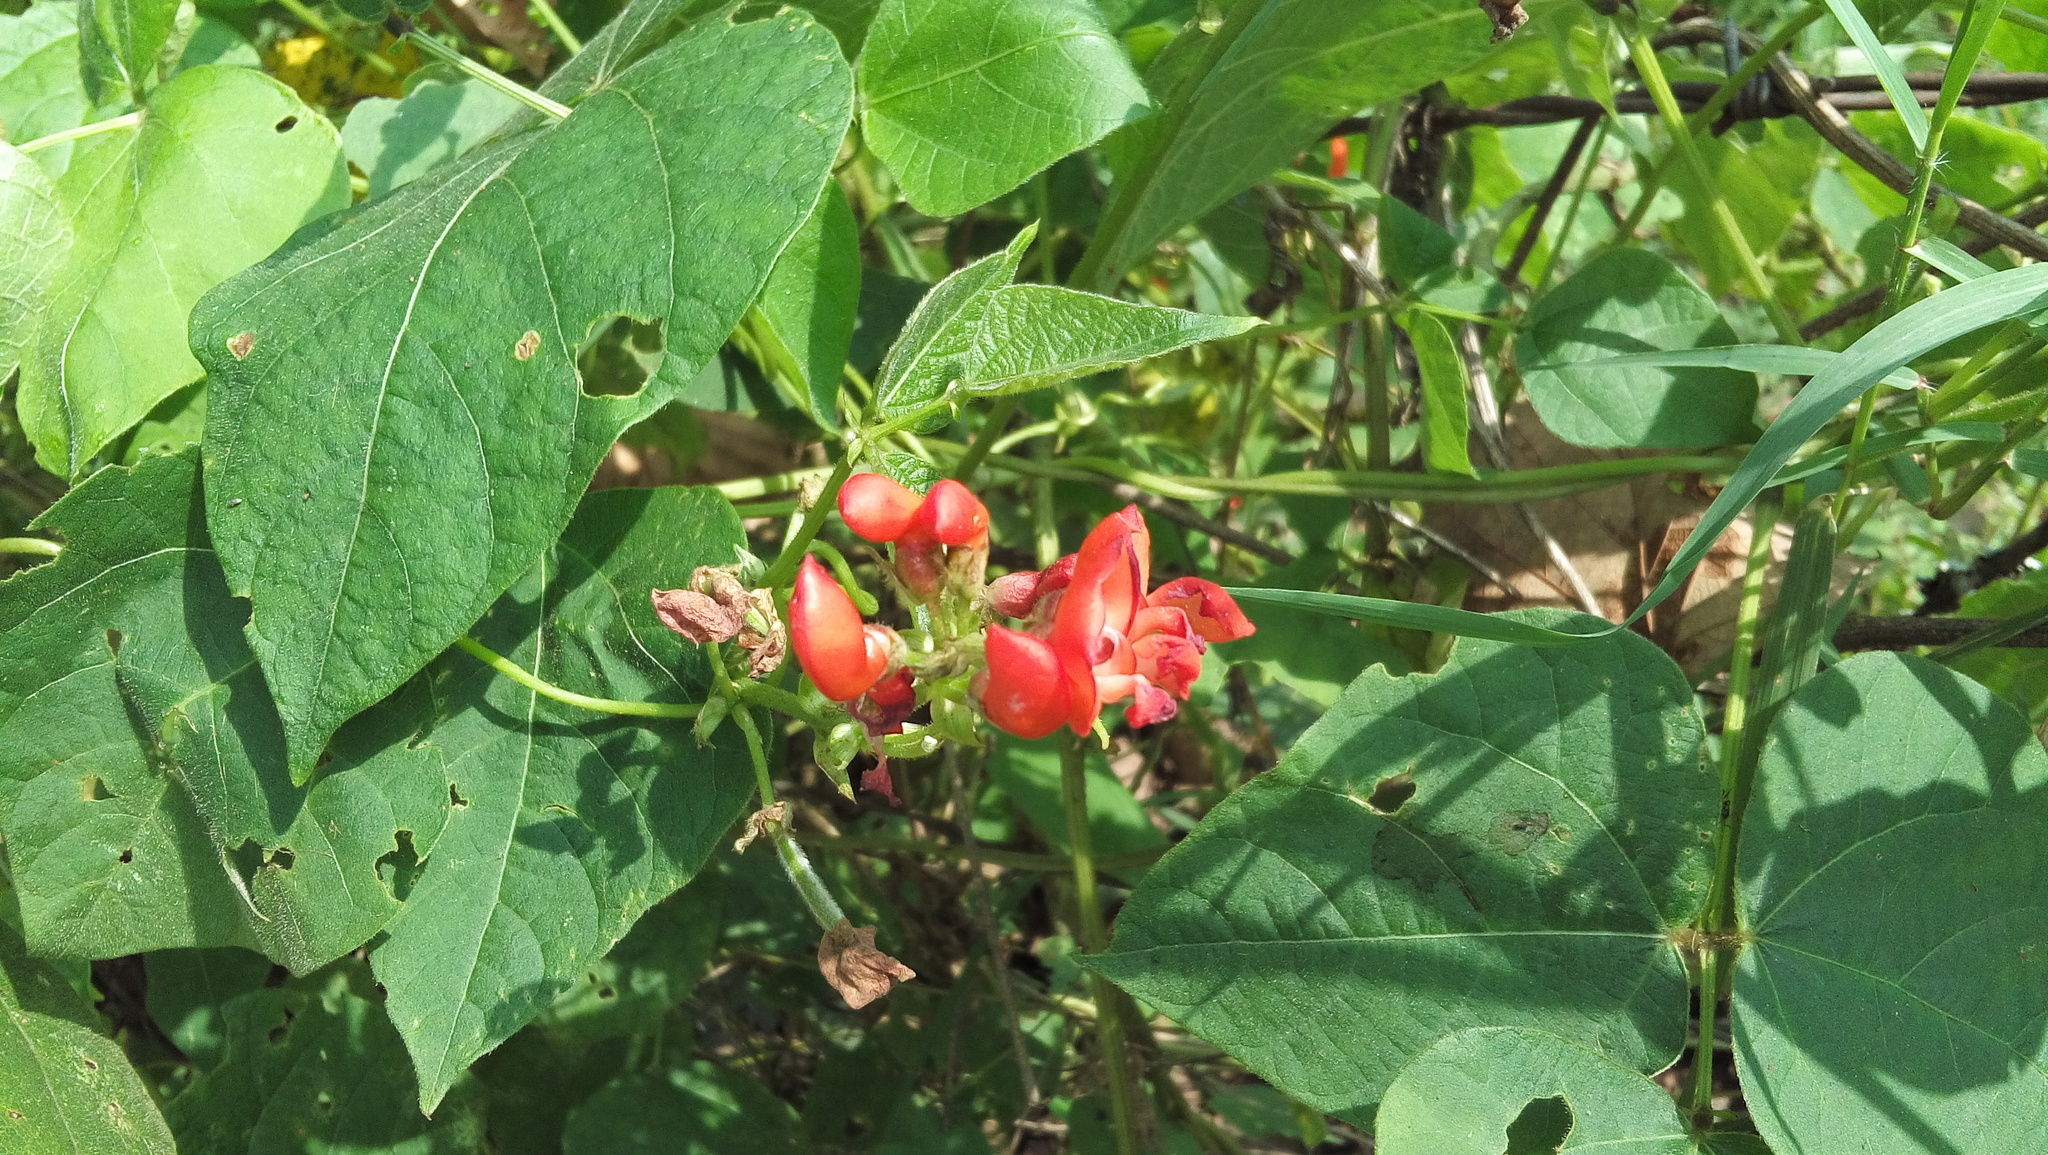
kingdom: Plantae
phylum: Tracheophyta
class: Magnoliopsida
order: Fabales
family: Fabaceae
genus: Phaseolus
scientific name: Phaseolus coccineus
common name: Runner bean
